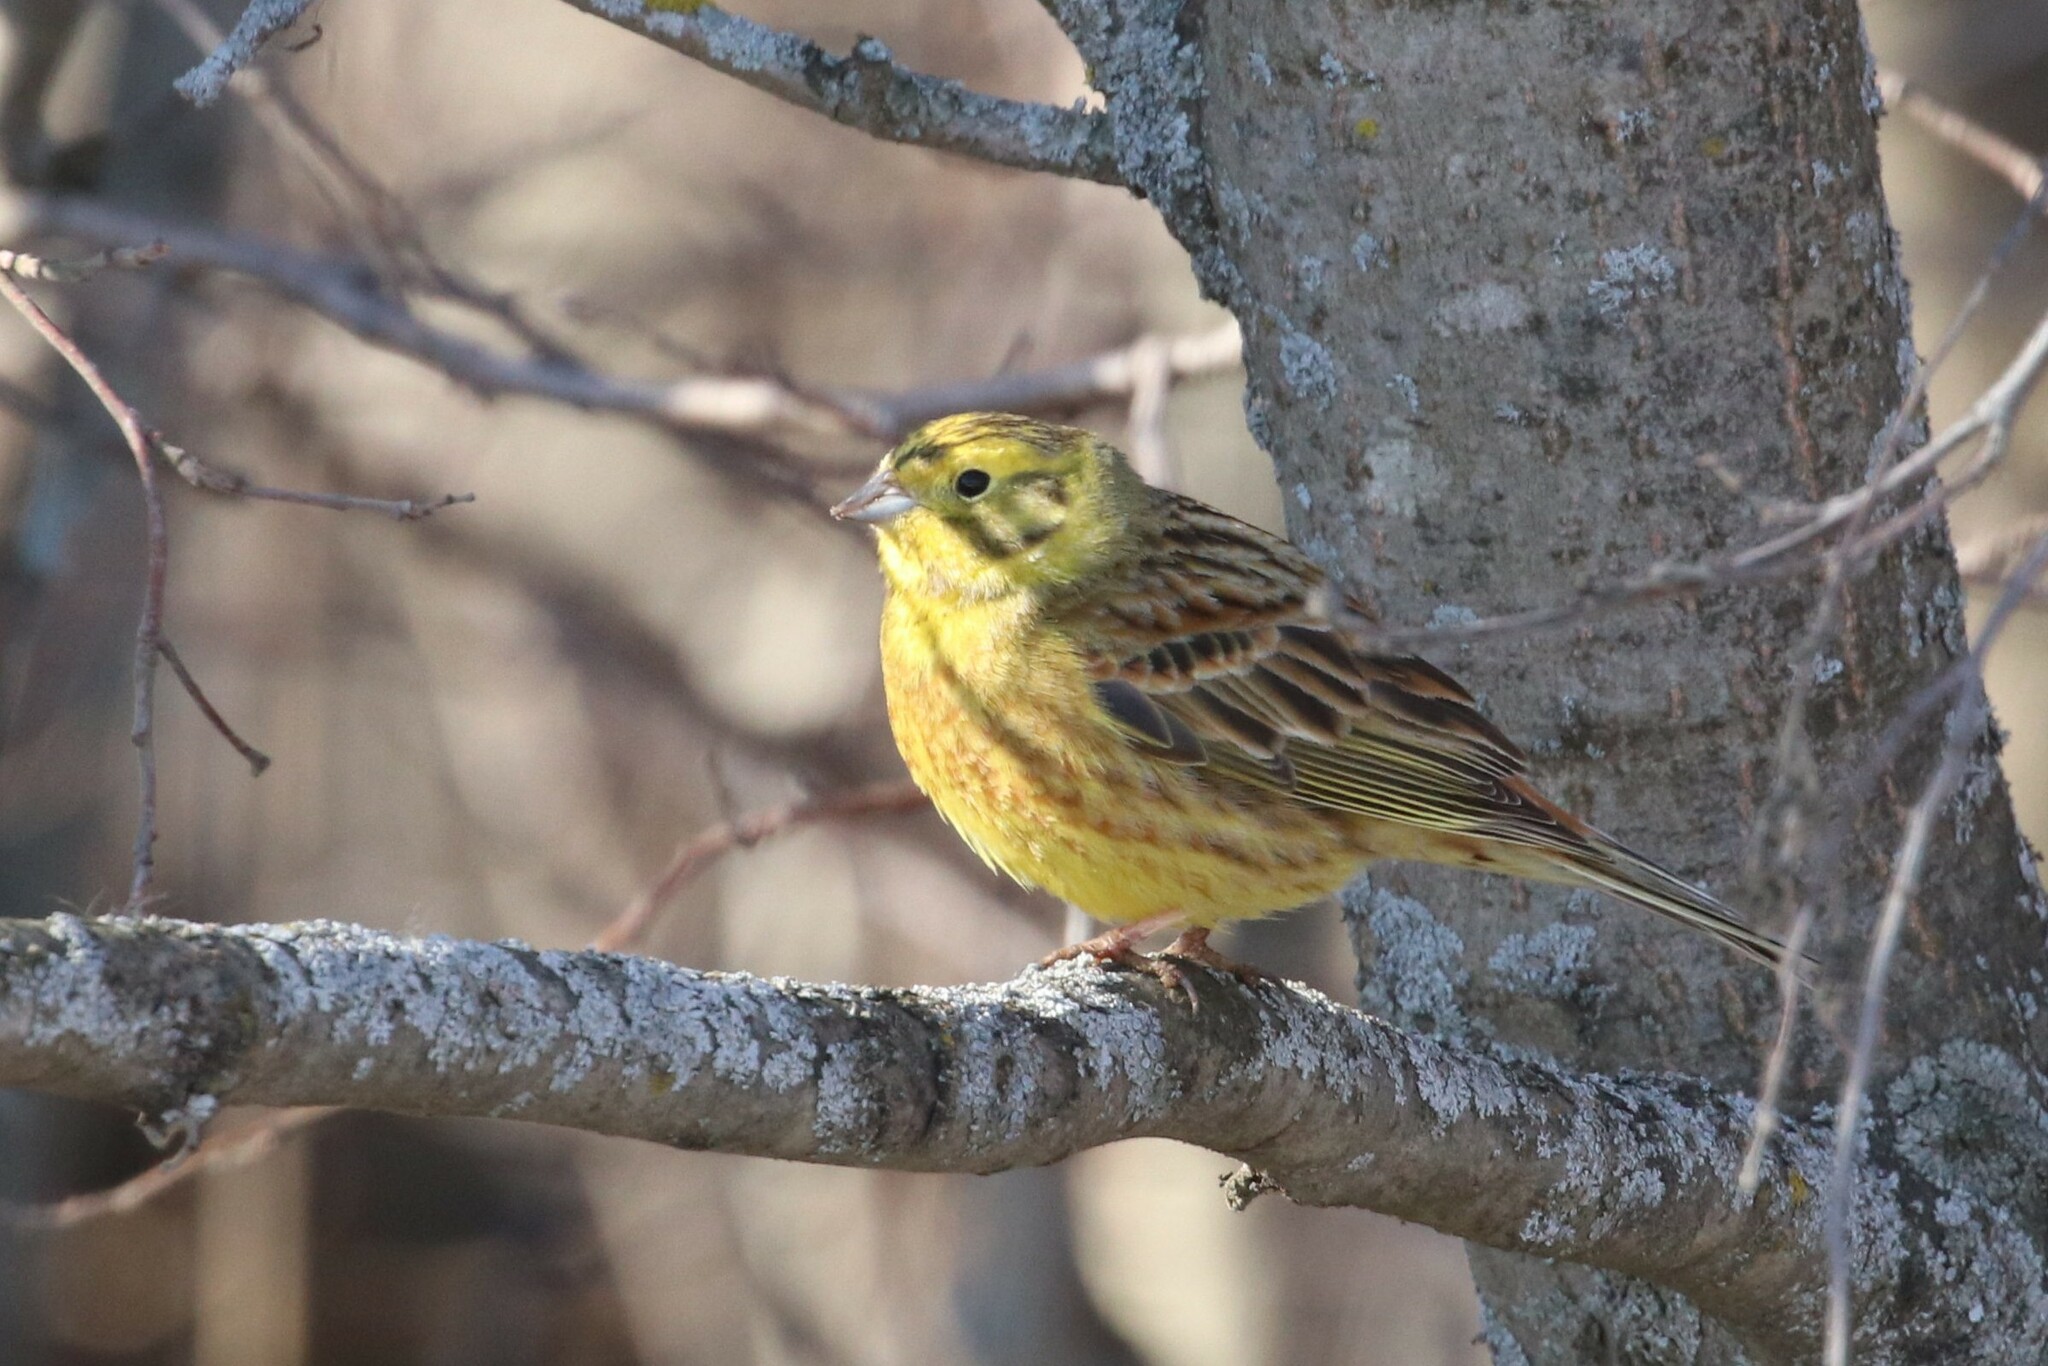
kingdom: Animalia
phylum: Chordata
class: Aves
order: Passeriformes
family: Emberizidae
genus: Emberiza
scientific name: Emberiza citrinella
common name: Yellowhammer
